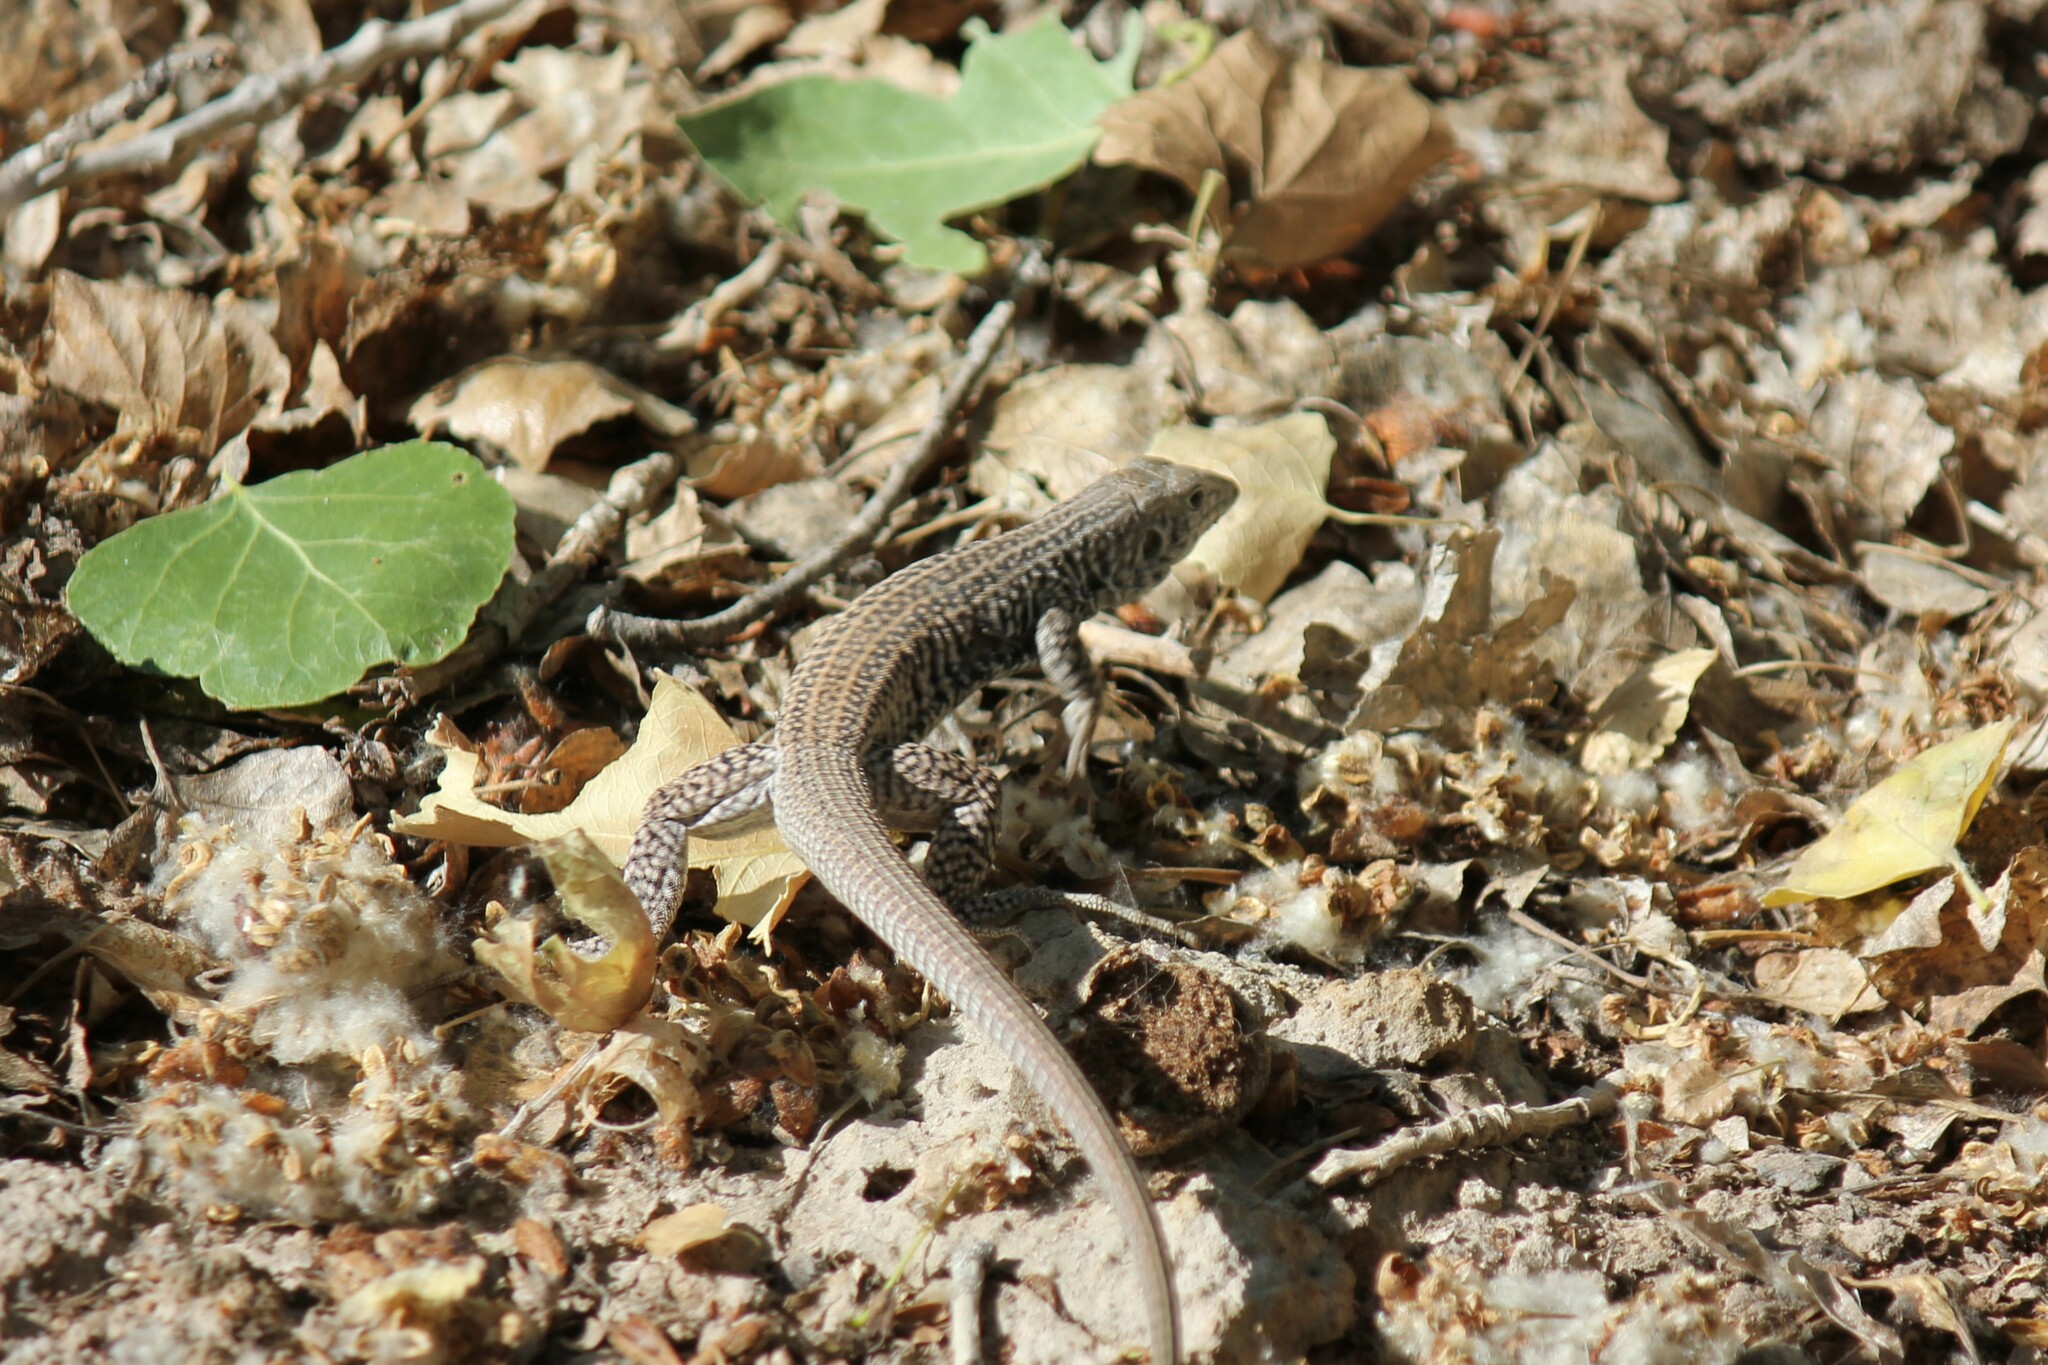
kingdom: Animalia
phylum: Chordata
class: Squamata
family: Teiidae
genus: Aspidoscelis
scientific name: Aspidoscelis tigris
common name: Tiger whiptail
